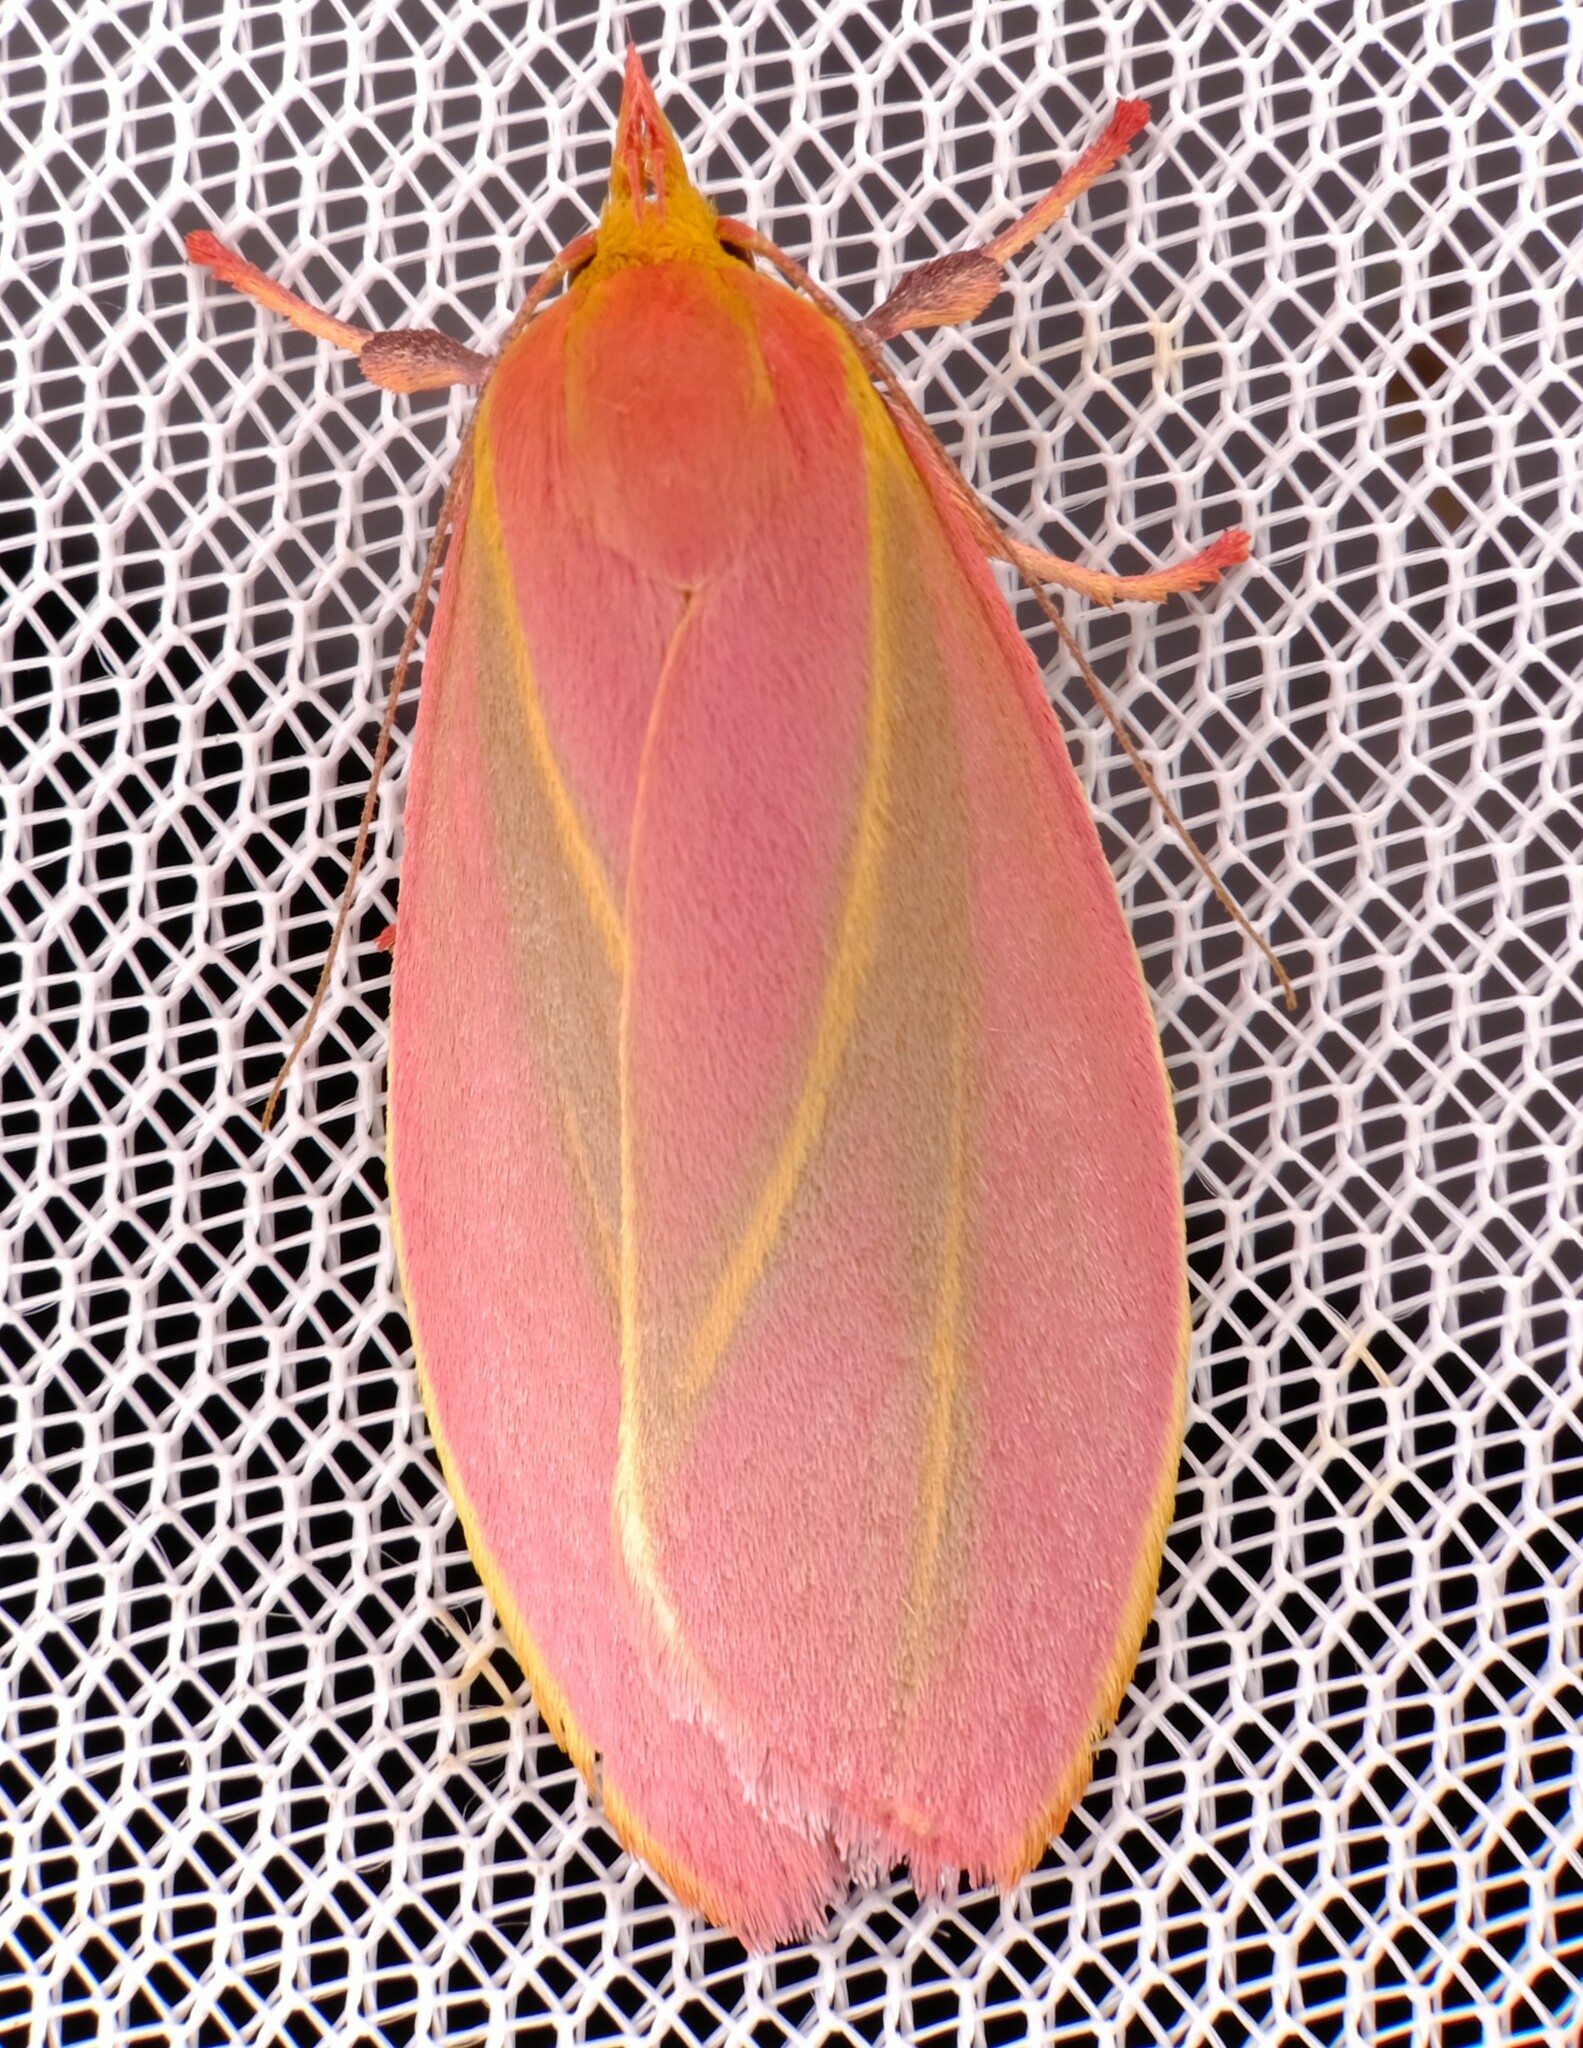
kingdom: Animalia
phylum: Arthropoda
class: Insecta
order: Lepidoptera
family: Oecophoridae
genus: Wingia
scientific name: Wingia lambertella
